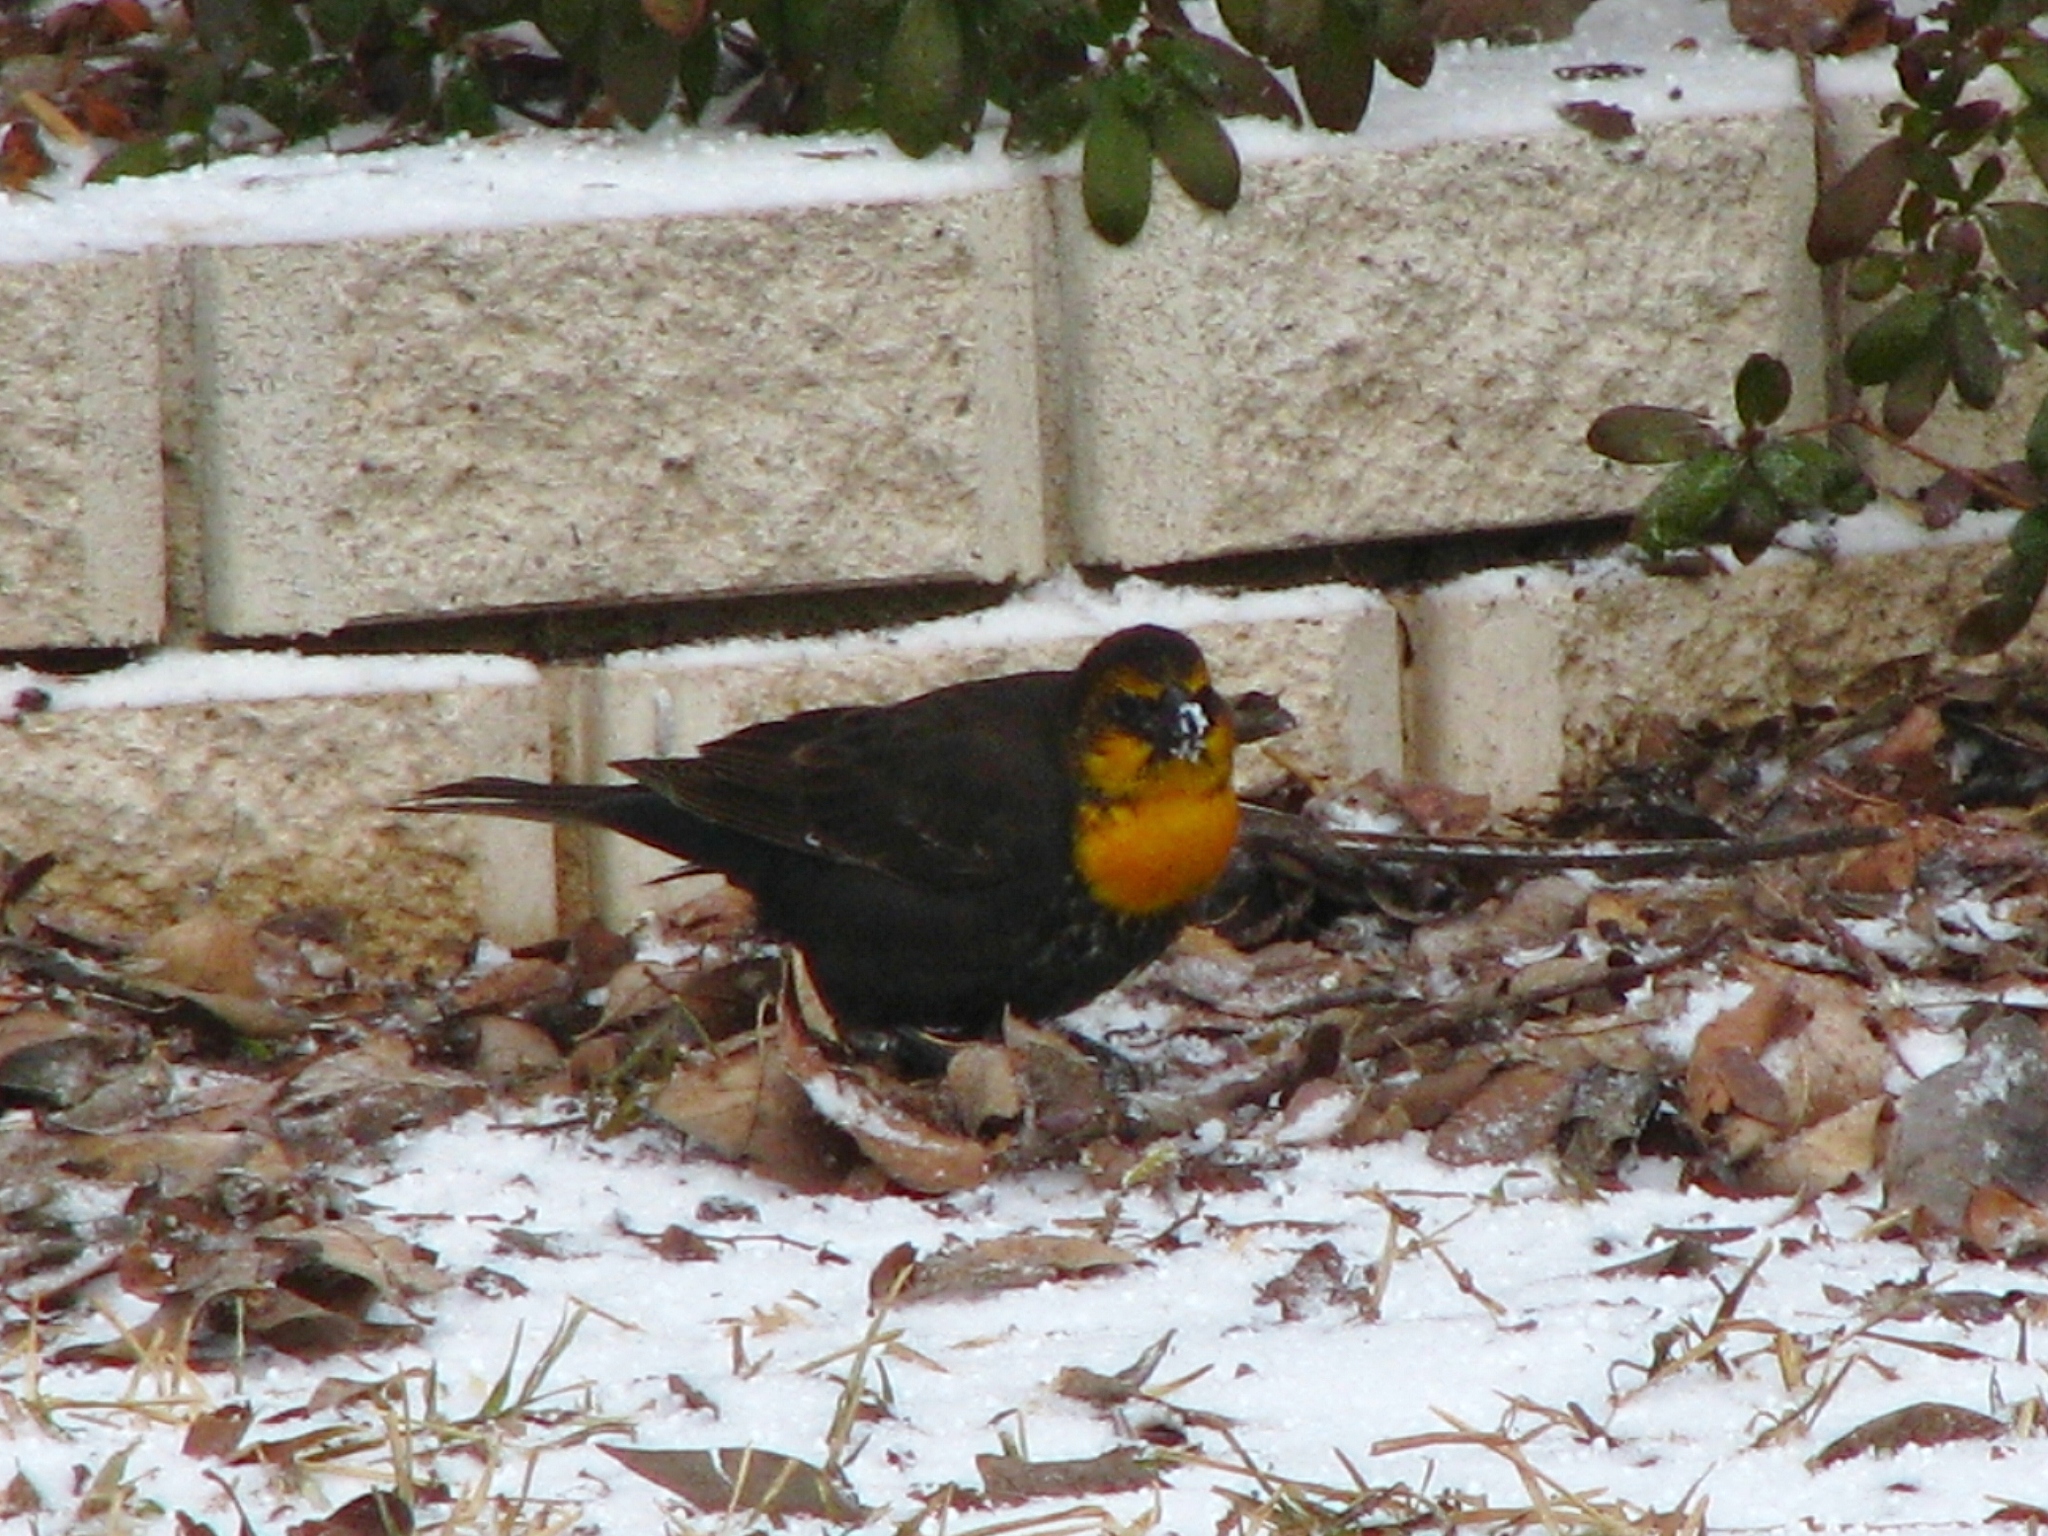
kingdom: Animalia
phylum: Chordata
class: Aves
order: Passeriformes
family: Icteridae
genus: Xanthocephalus
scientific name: Xanthocephalus xanthocephalus
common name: Yellow-headed blackbird
